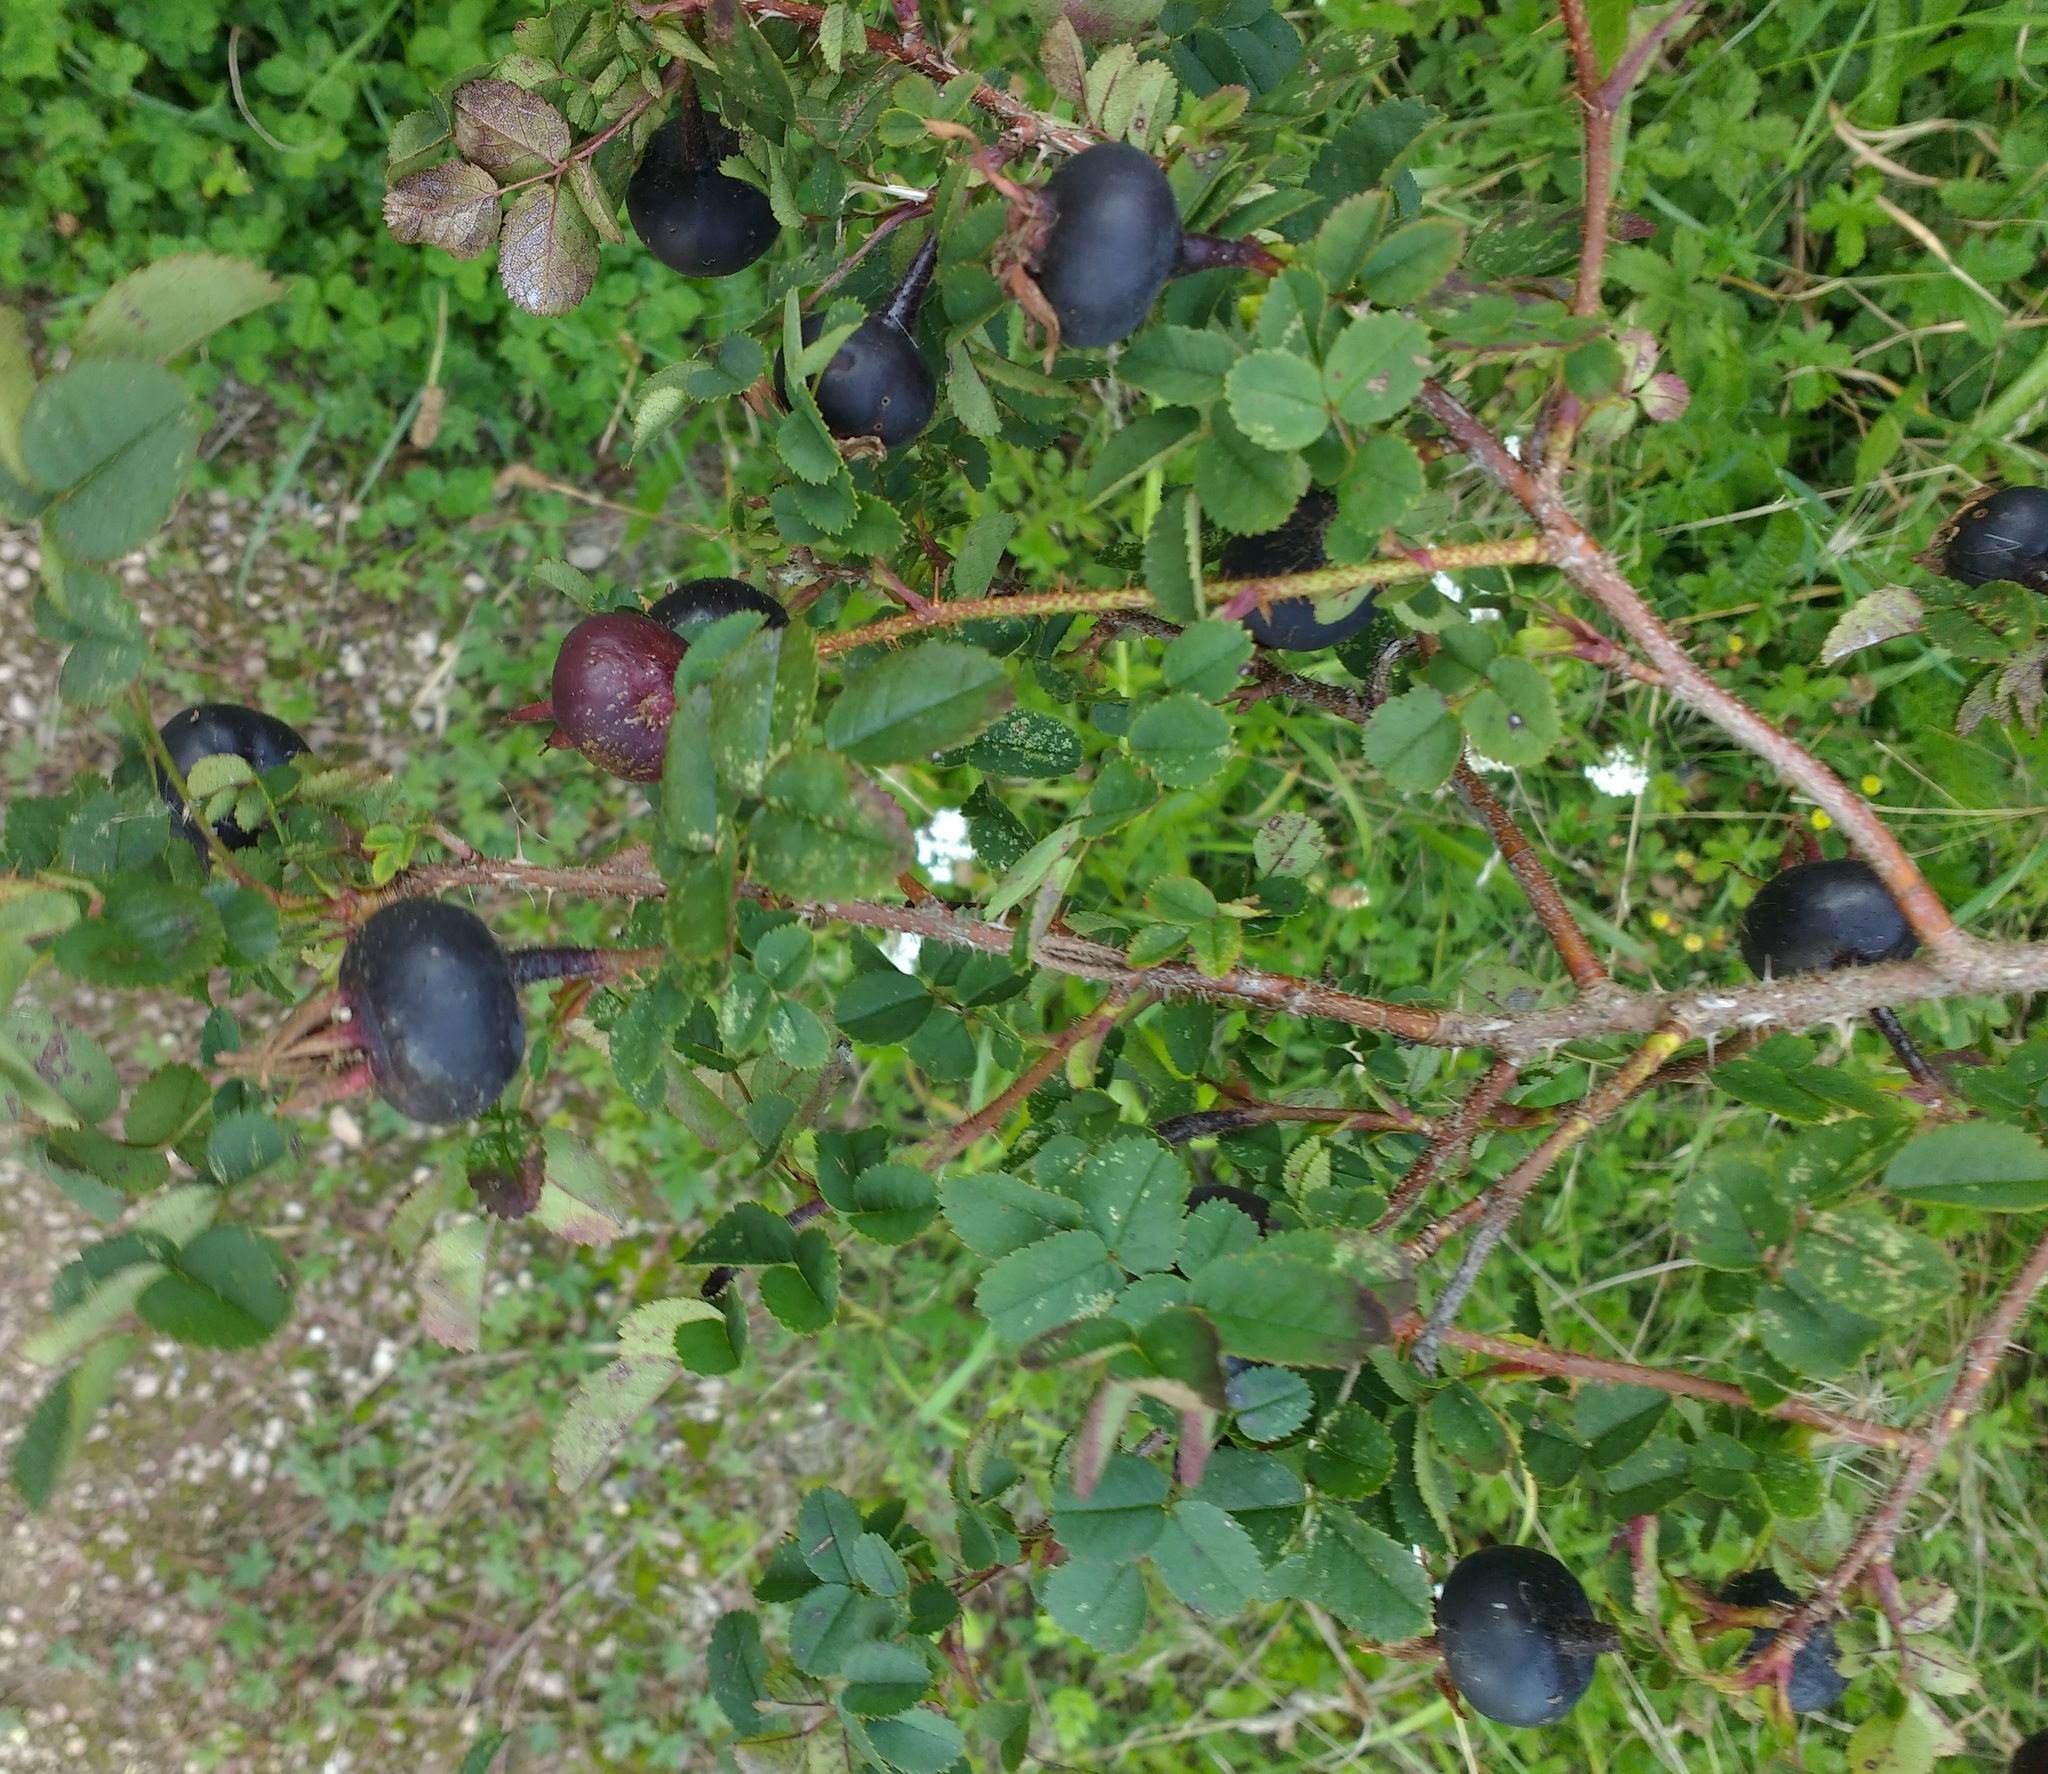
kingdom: Plantae
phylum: Tracheophyta
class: Magnoliopsida
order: Rosales
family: Rosaceae
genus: Rosa
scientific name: Rosa spinosissima
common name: Burnet rose
